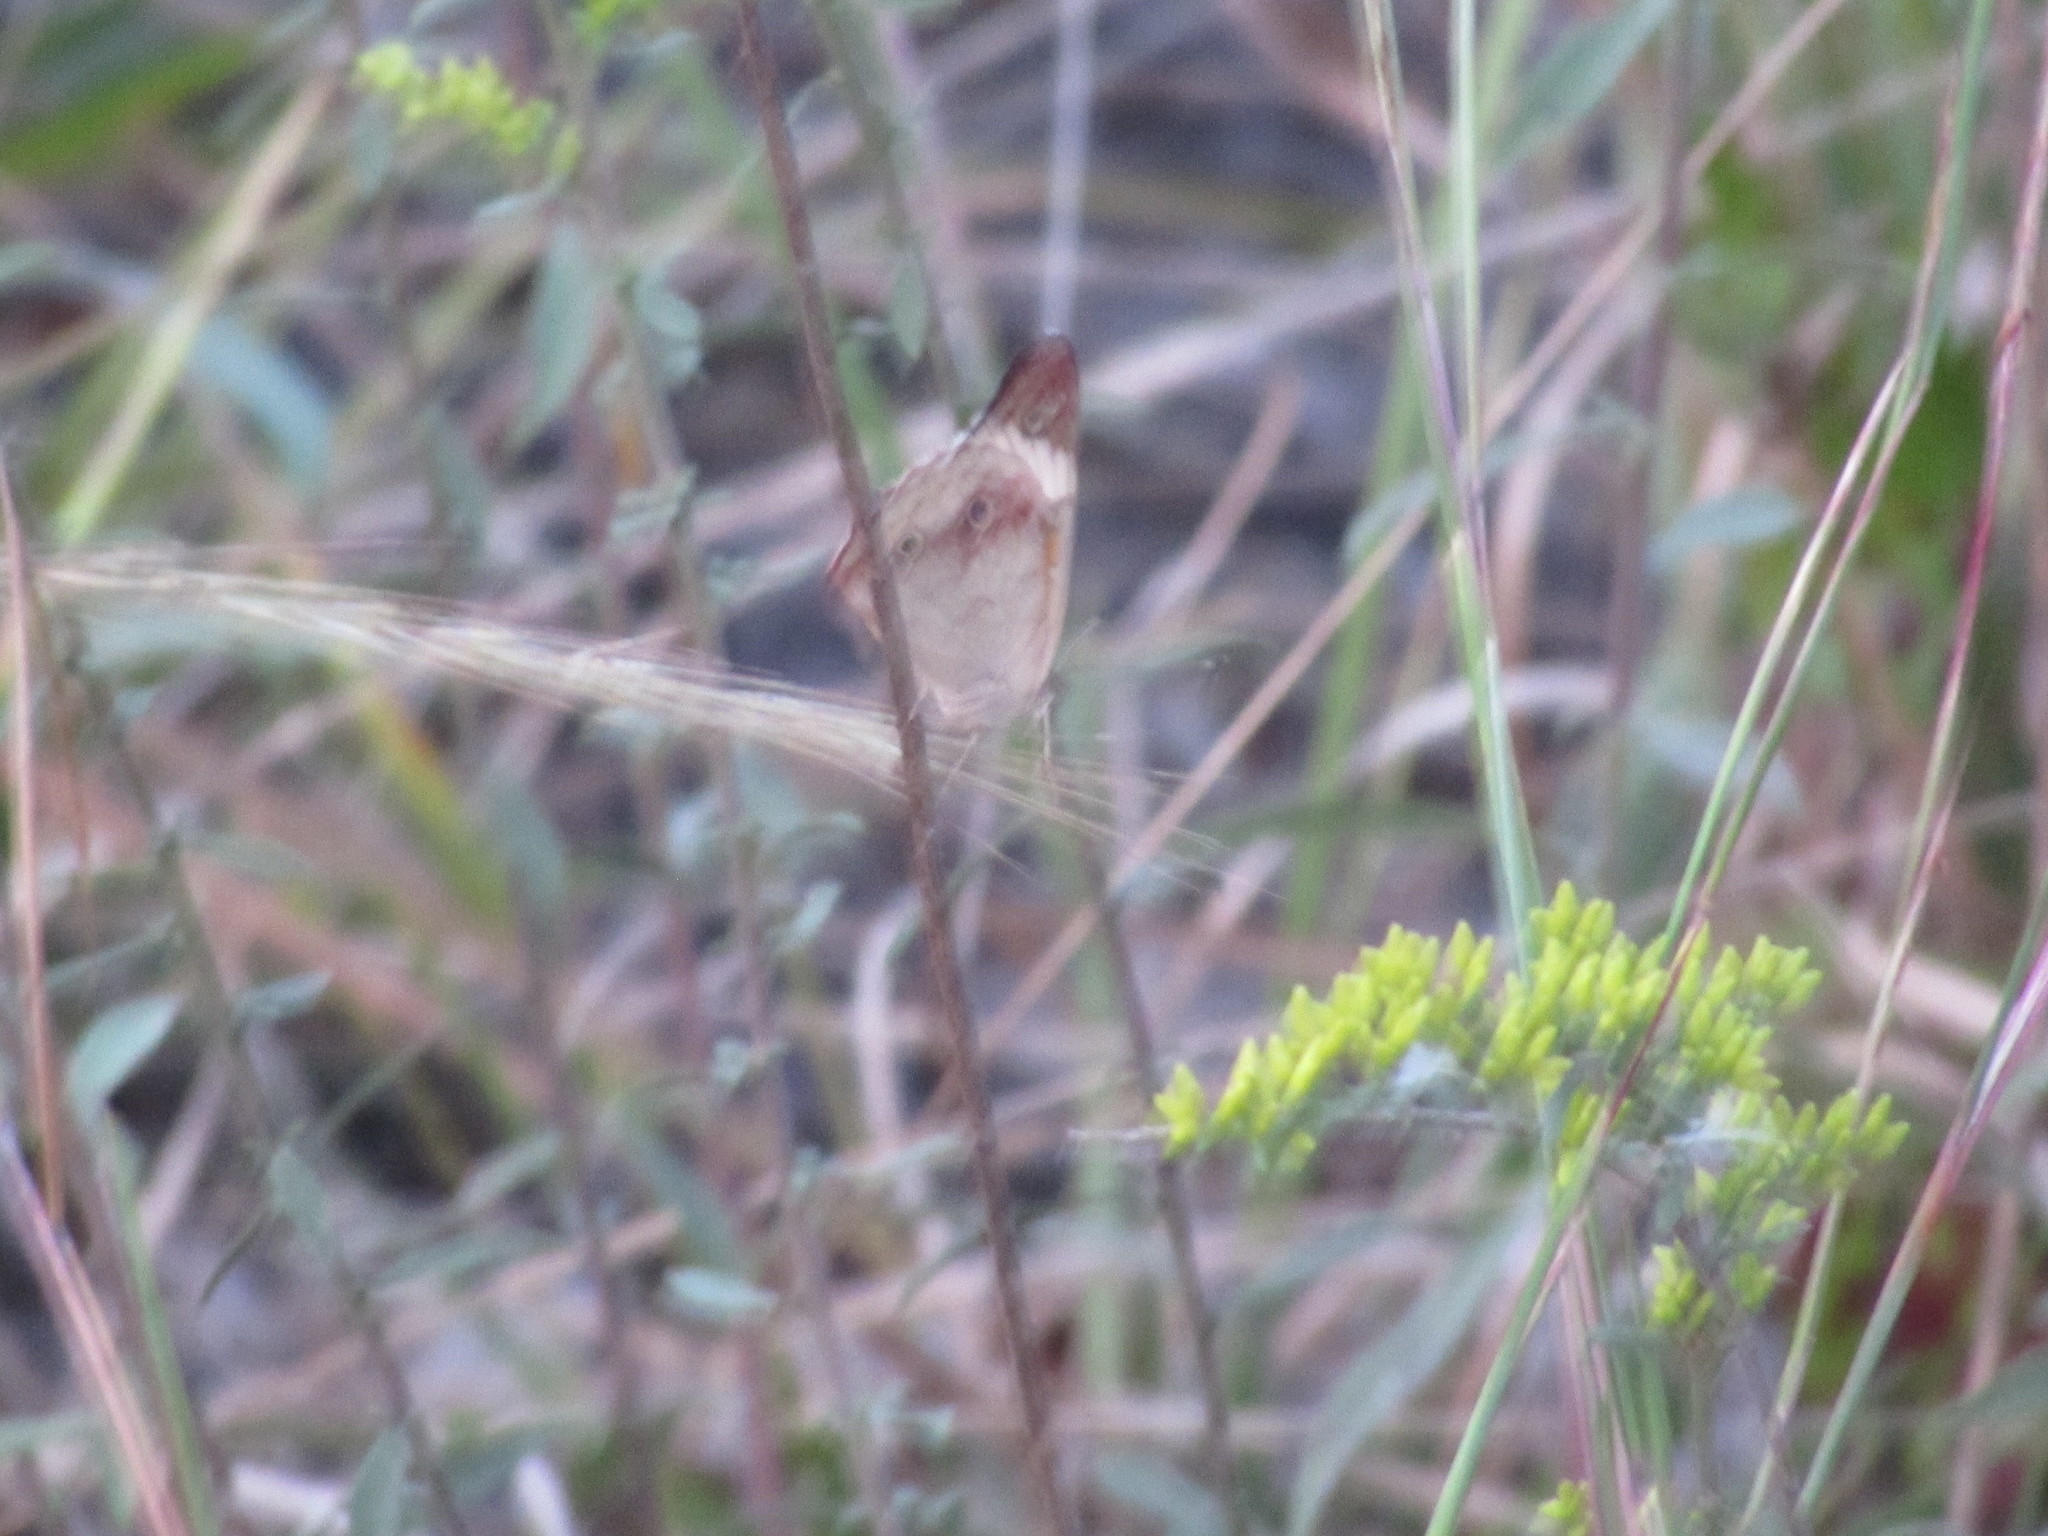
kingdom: Animalia
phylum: Arthropoda
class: Insecta
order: Lepidoptera
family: Nymphalidae
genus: Junonia
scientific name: Junonia coenia
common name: Common buckeye
